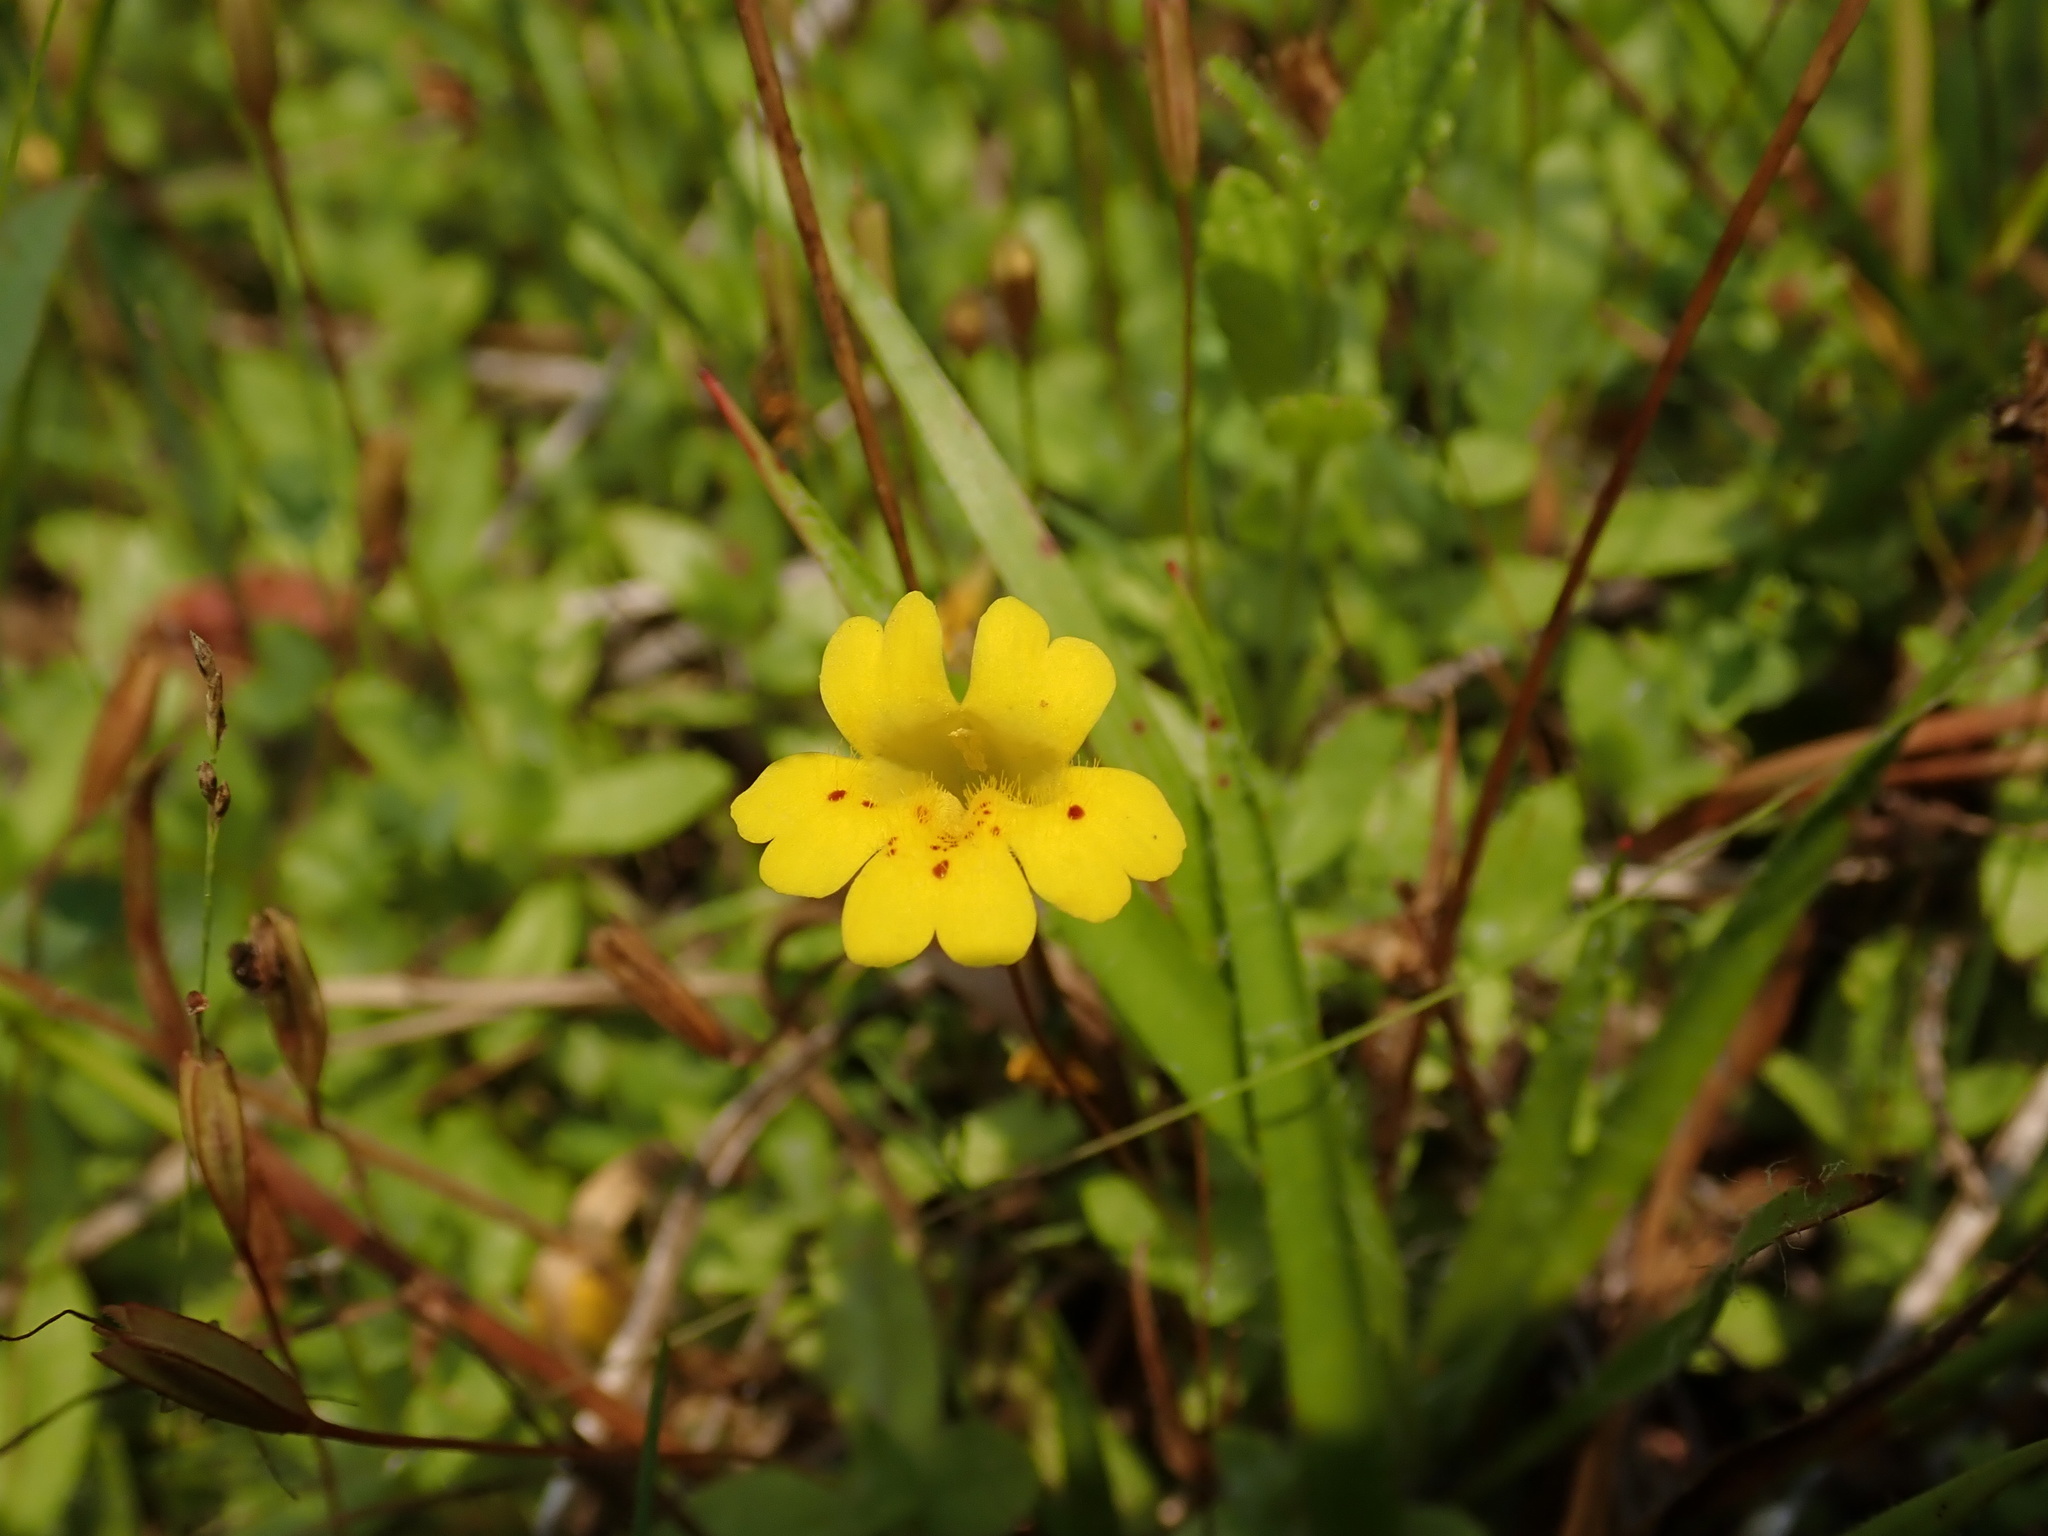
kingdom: Plantae
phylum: Tracheophyta
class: Magnoliopsida
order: Lamiales
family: Phrymaceae
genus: Erythranthe
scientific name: Erythranthe primuloides
